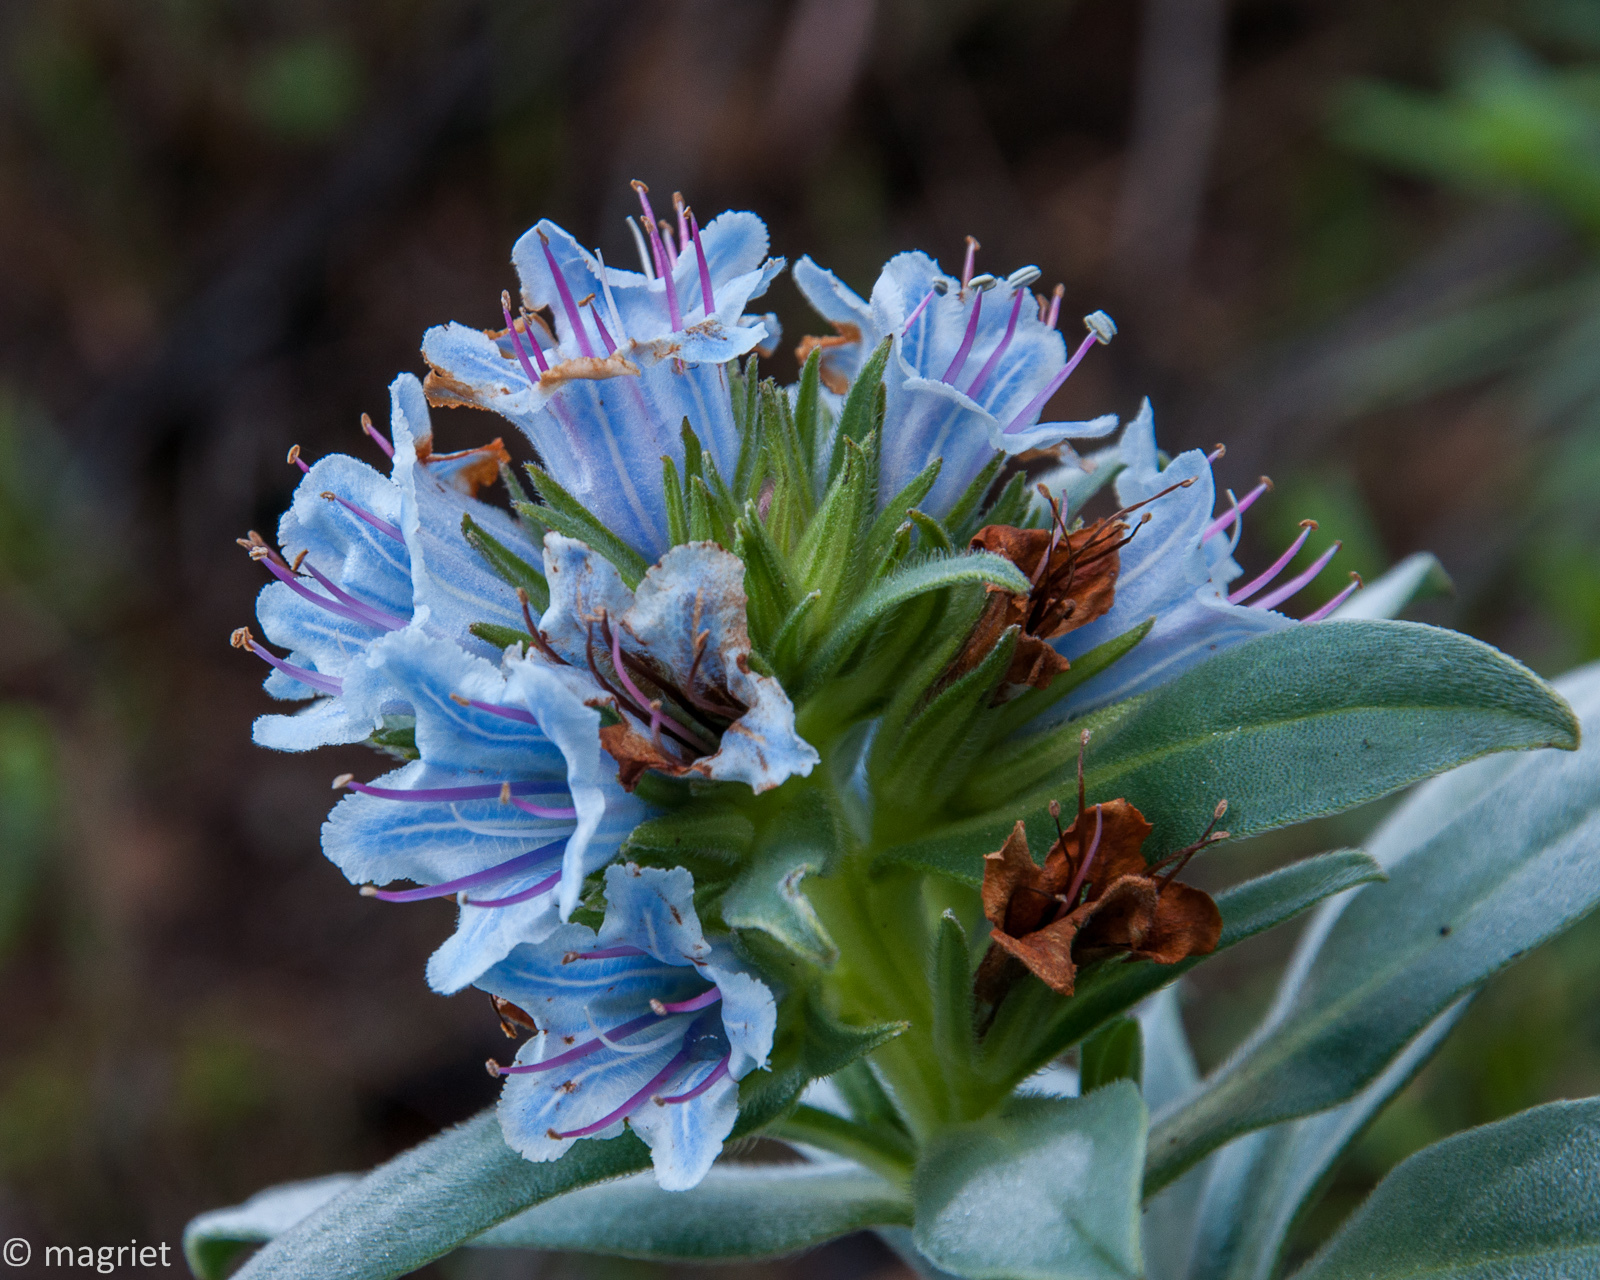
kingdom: Plantae
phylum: Tracheophyta
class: Magnoliopsida
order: Boraginales
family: Boraginaceae
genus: Lobostemon
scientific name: Lobostemon montanus
